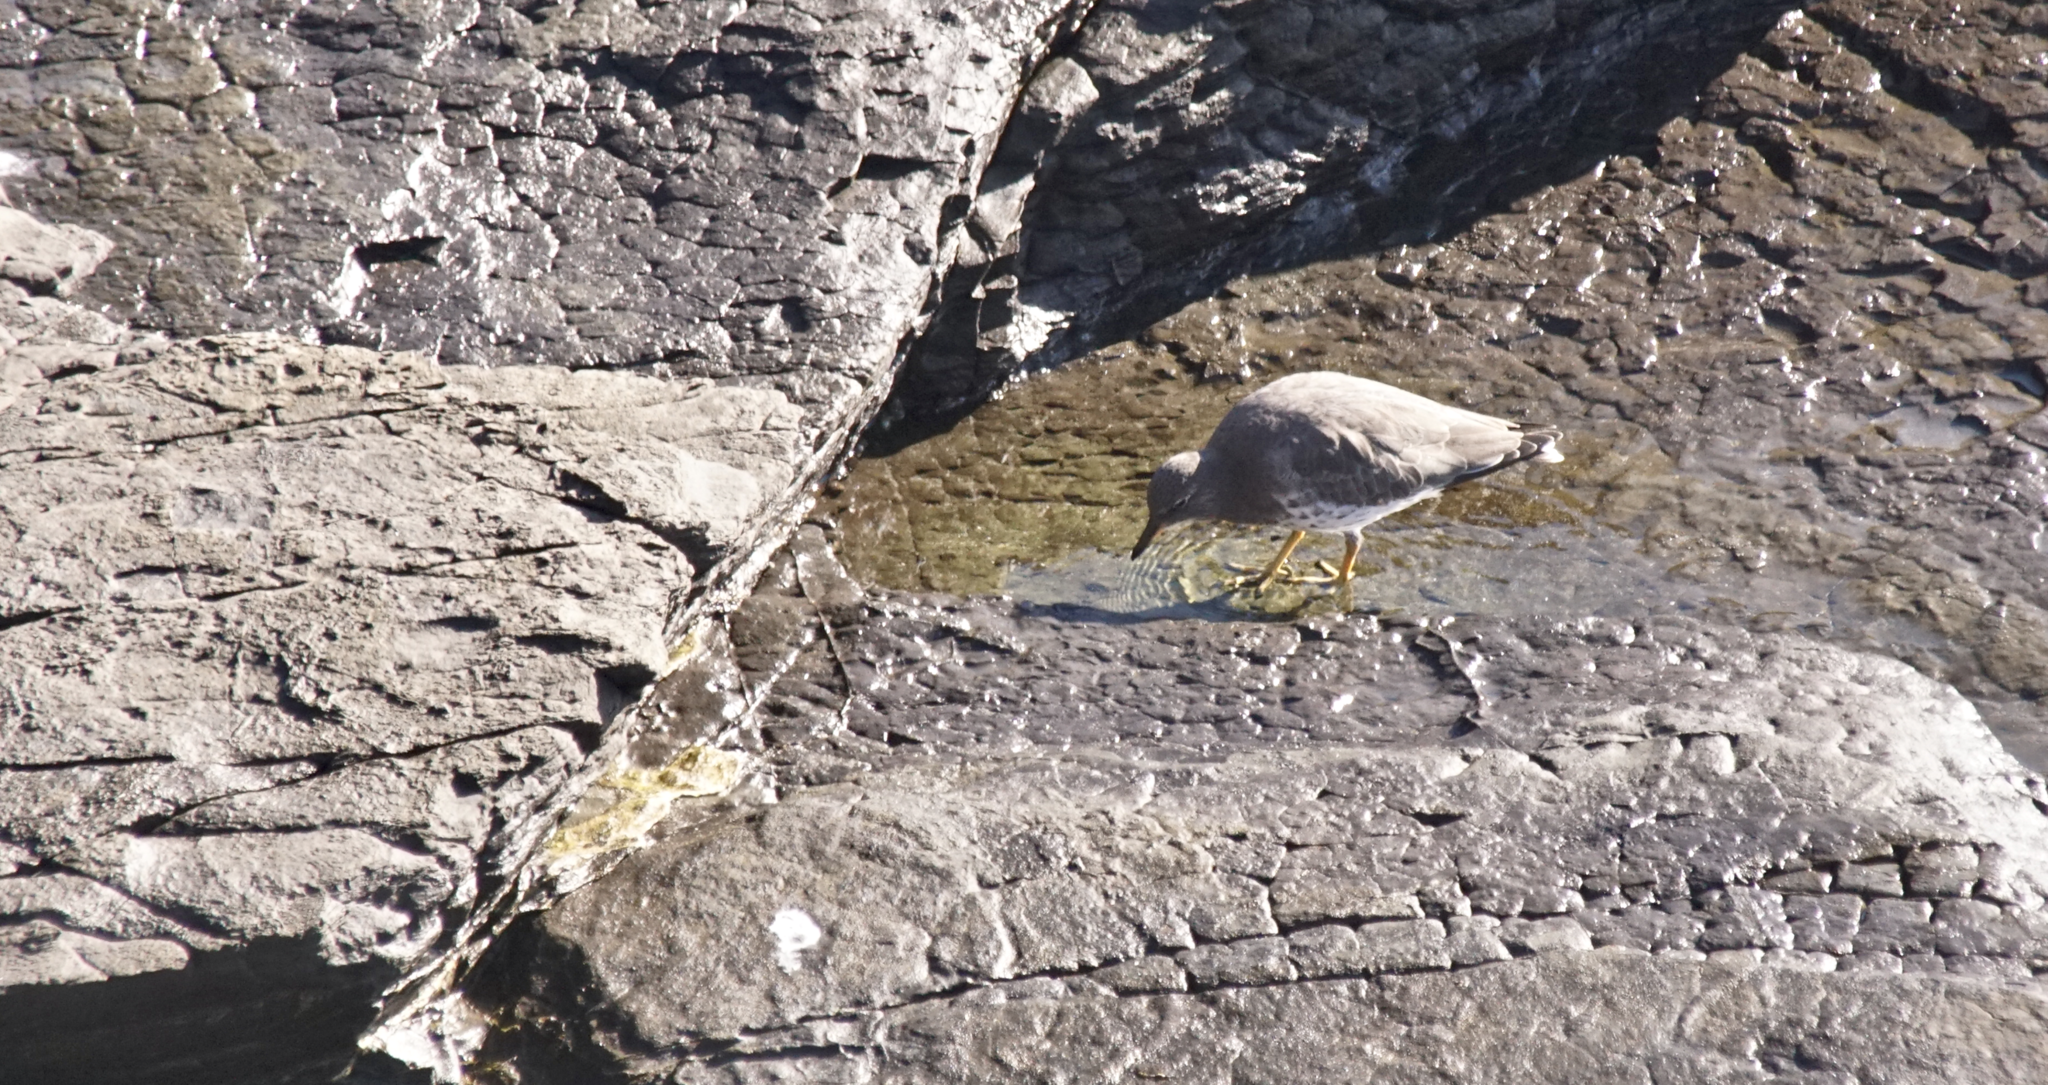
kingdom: Animalia
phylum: Chordata
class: Aves
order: Charadriiformes
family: Scolopacidae
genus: Calidris
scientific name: Calidris virgata
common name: Surfbird
